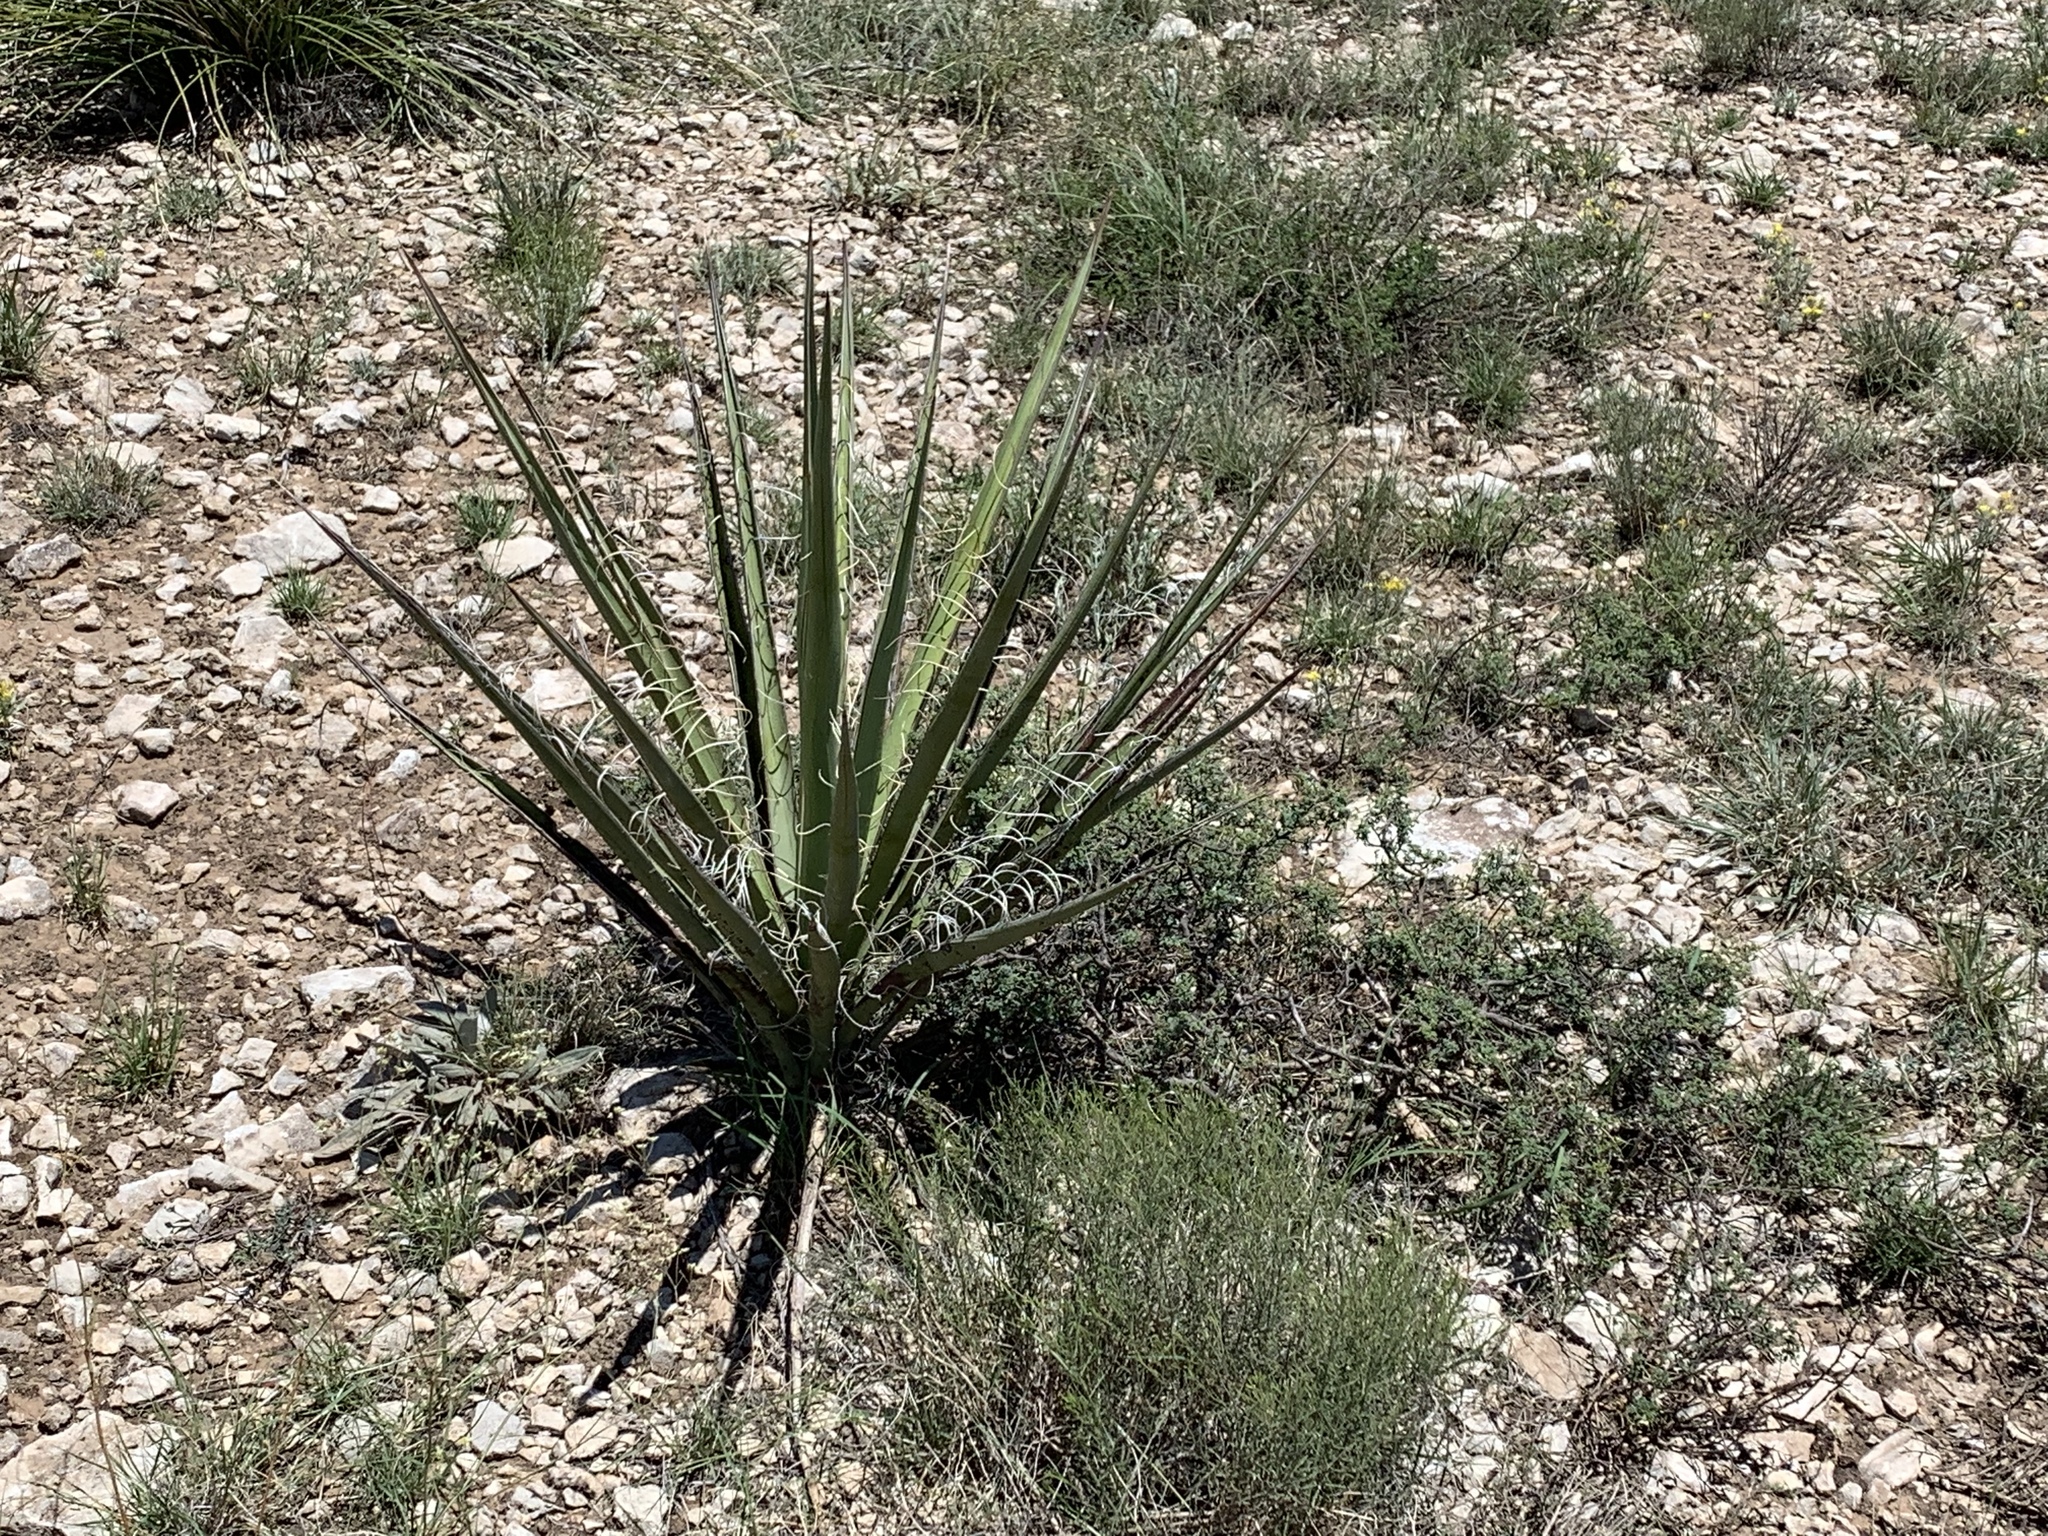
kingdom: Plantae
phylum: Tracheophyta
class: Liliopsida
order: Asparagales
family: Asparagaceae
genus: Yucca
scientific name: Yucca baccata
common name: Banana yucca
